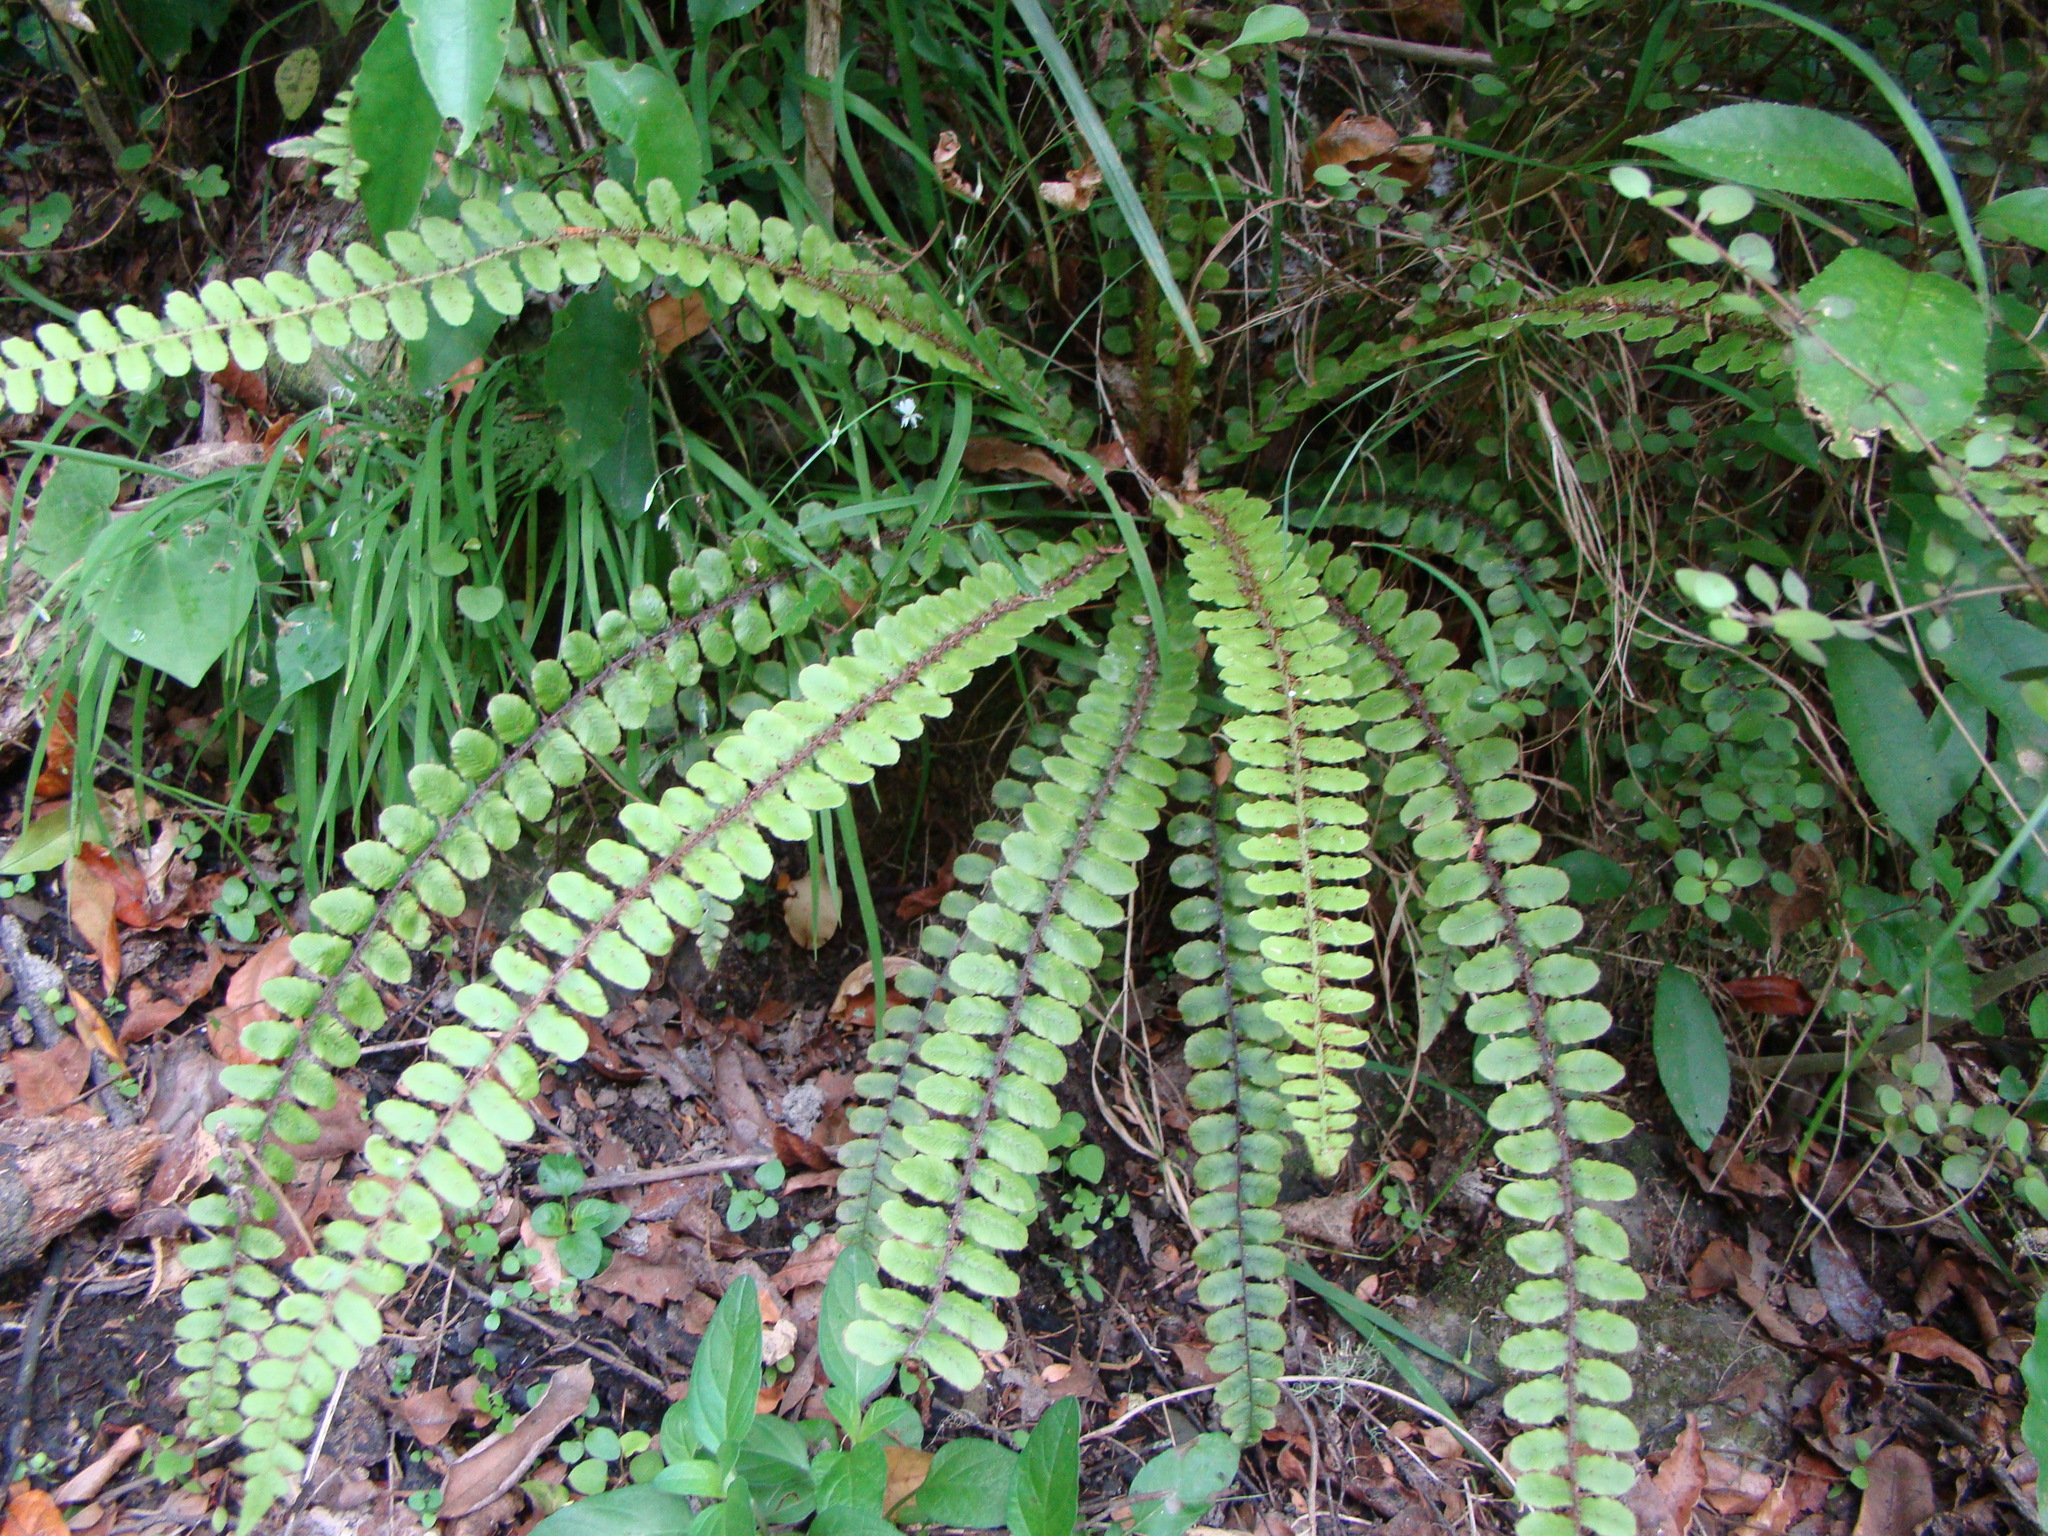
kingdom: Plantae
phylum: Tracheophyta
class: Polypodiopsida
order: Polypodiales
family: Blechnaceae
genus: Cranfillia
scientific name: Cranfillia fluviatilis
